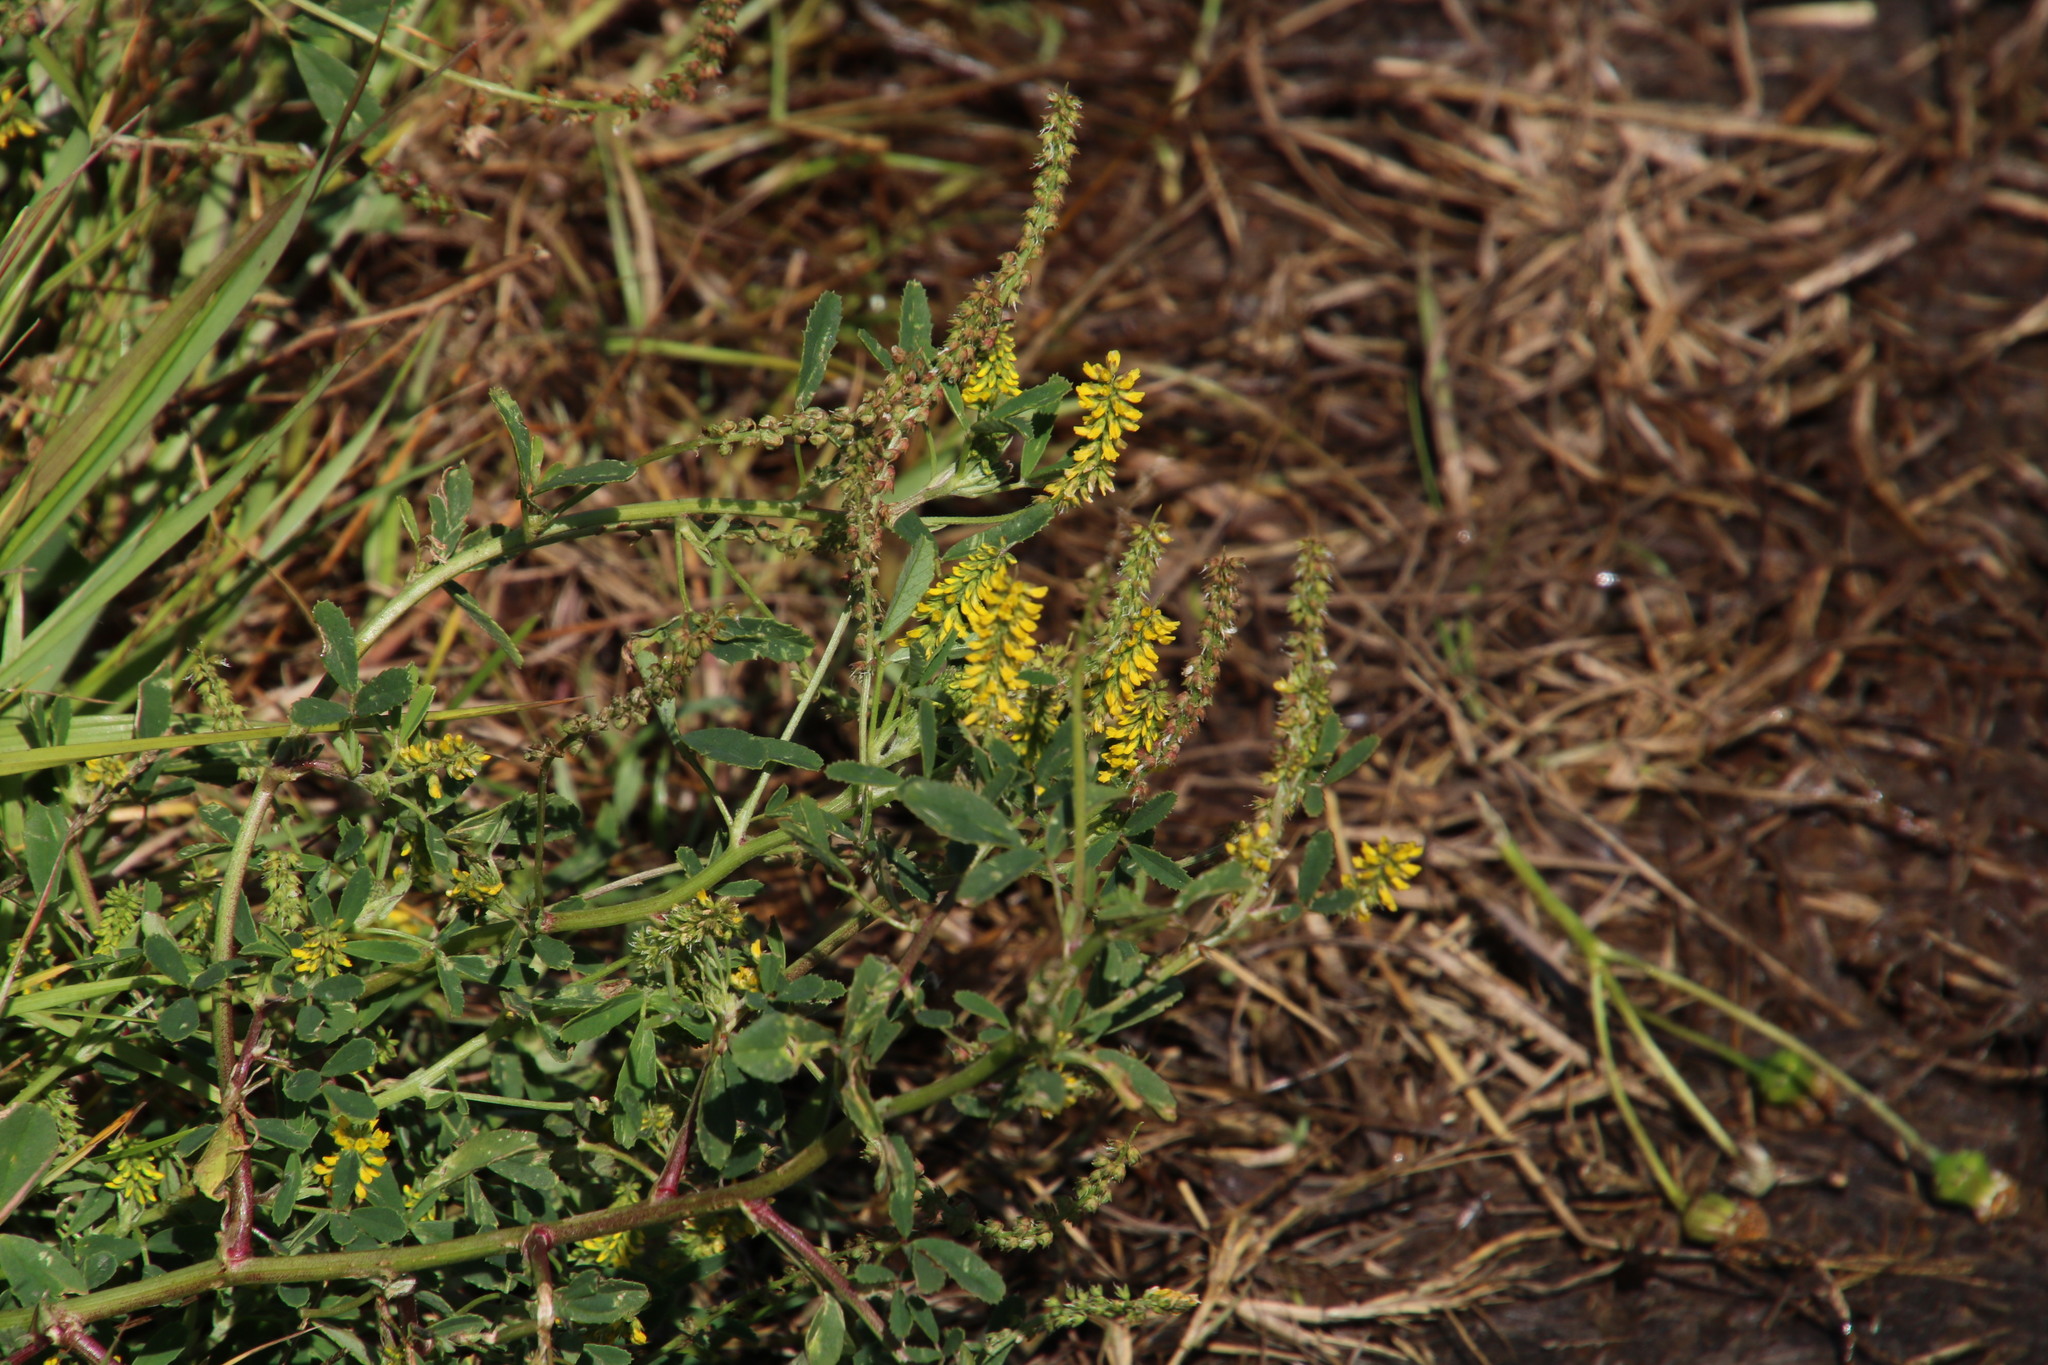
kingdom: Plantae
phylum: Tracheophyta
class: Magnoliopsida
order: Fabales
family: Fabaceae
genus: Melilotus
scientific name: Melilotus indicus
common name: Small melilot
